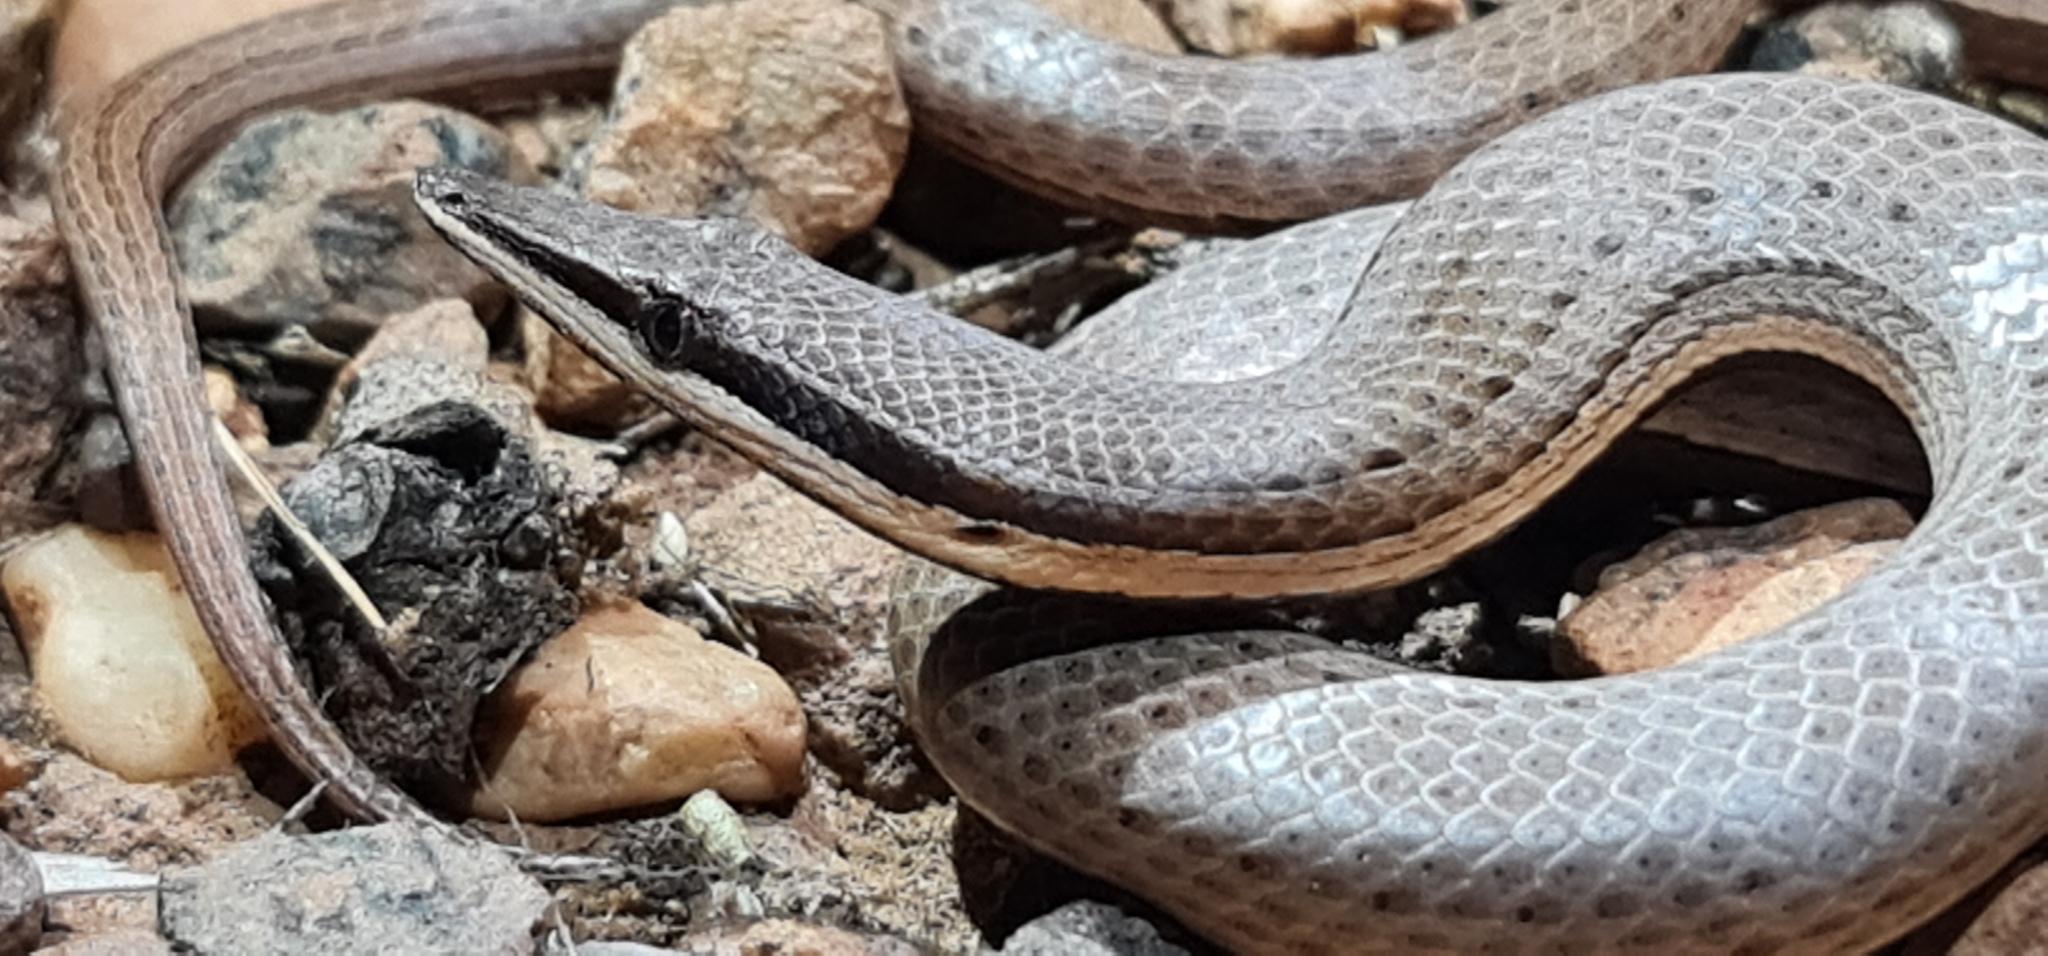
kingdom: Animalia
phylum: Chordata
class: Squamata
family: Pygopodidae
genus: Lialis
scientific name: Lialis burtonis
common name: Burton's legless lizard
